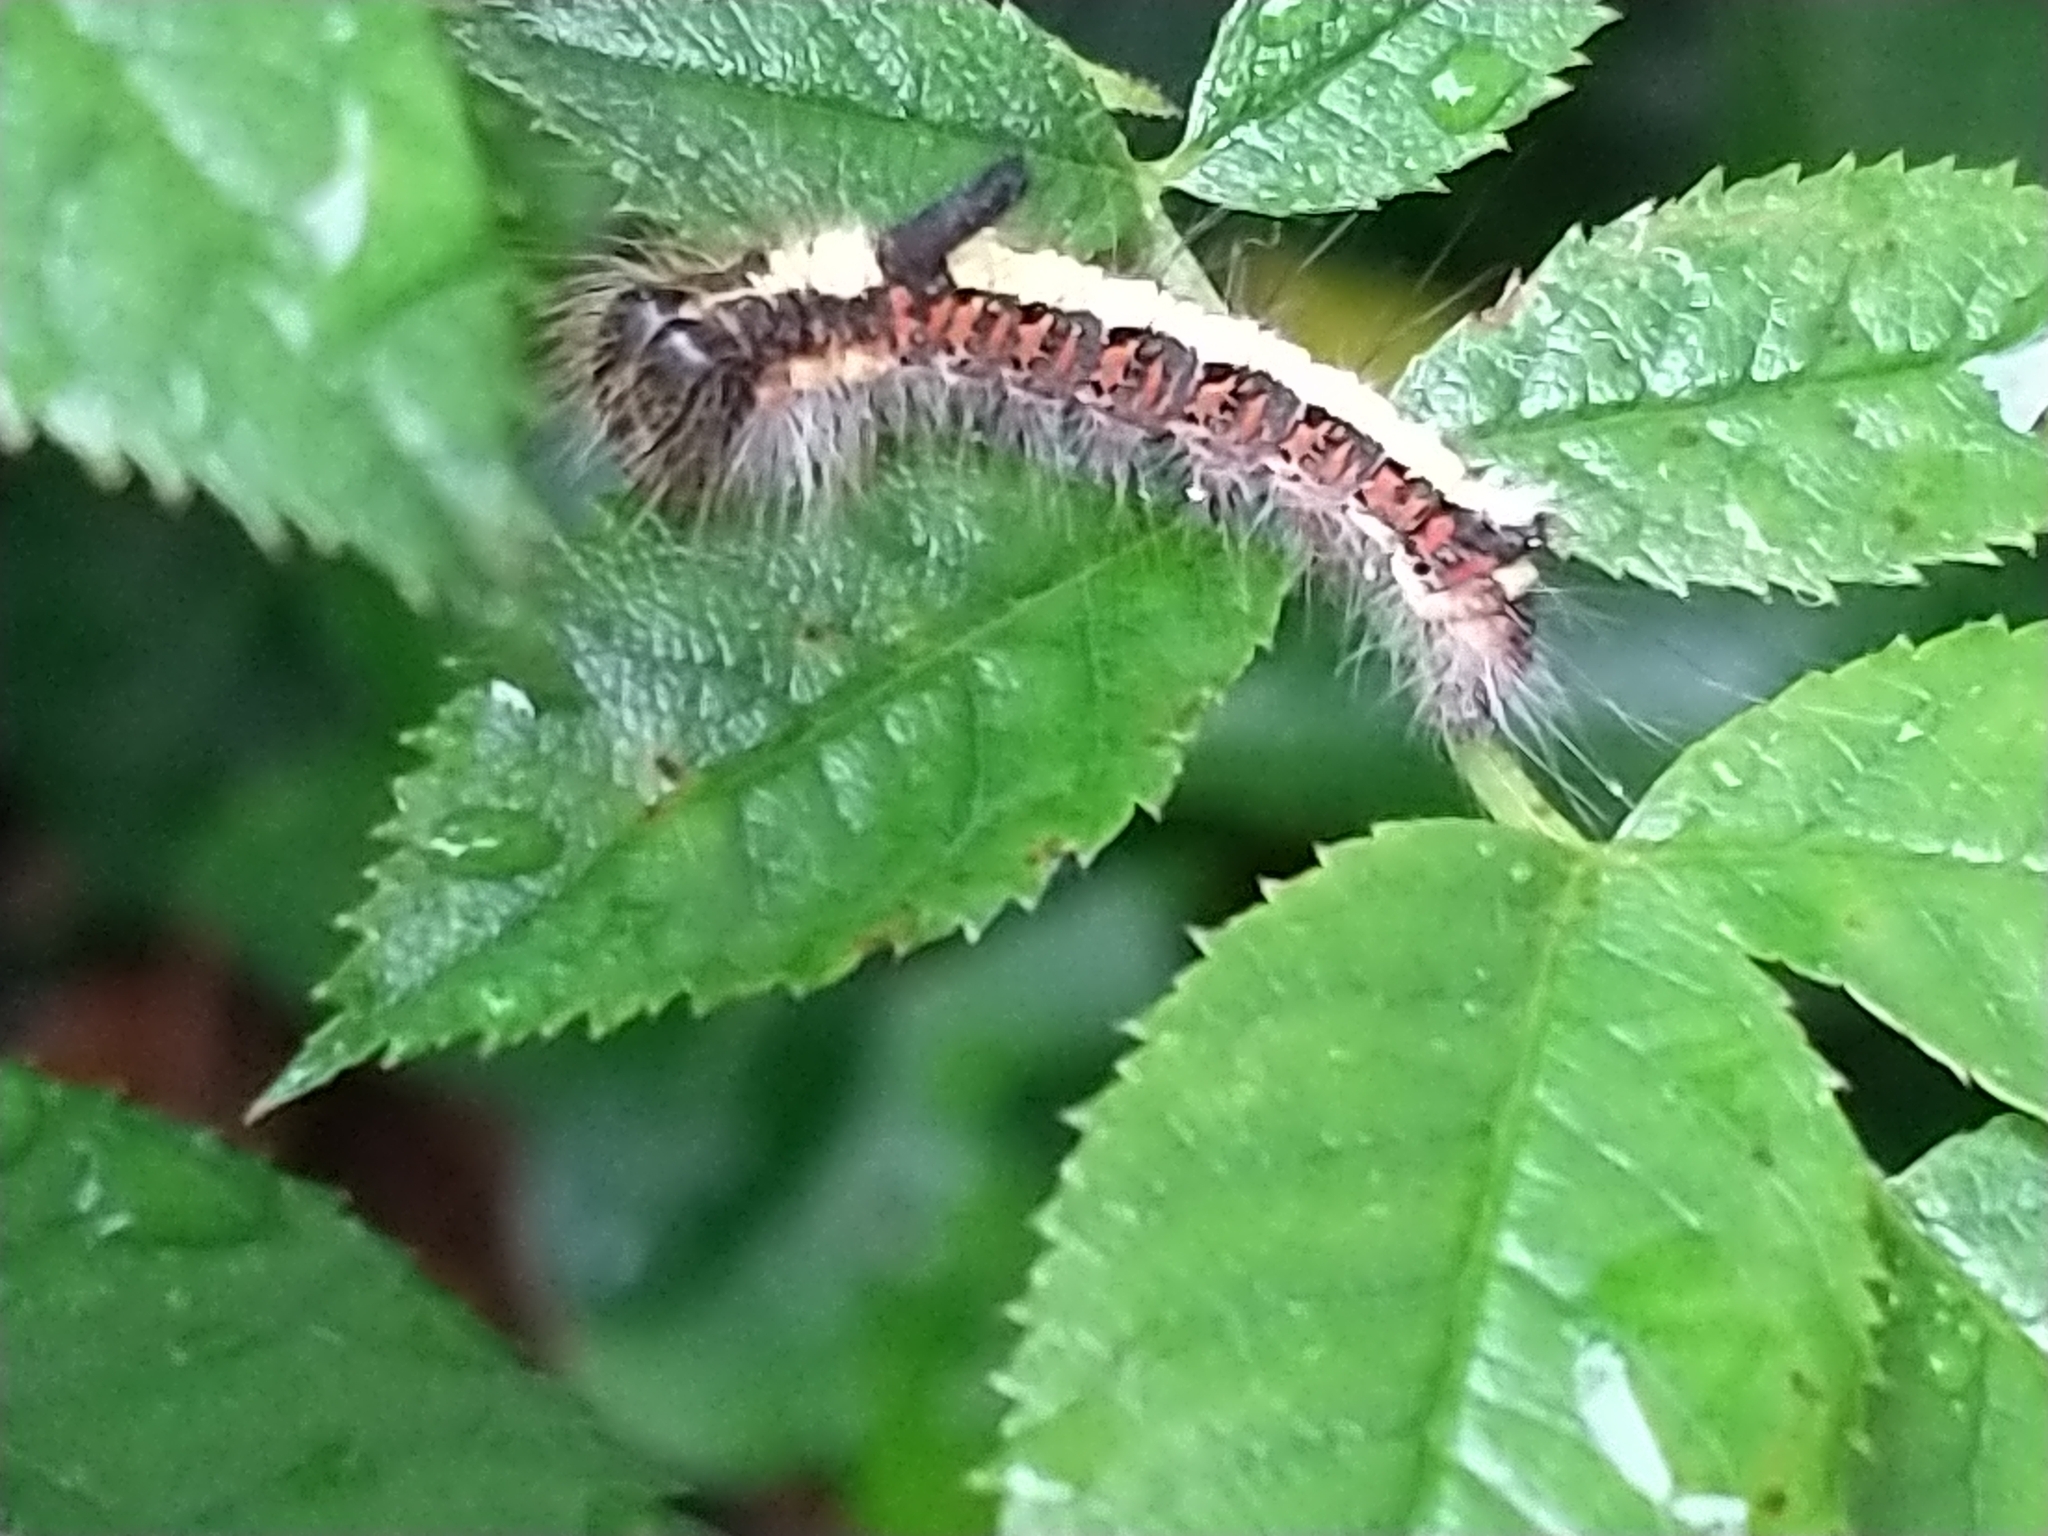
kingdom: Animalia
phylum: Arthropoda
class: Insecta
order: Lepidoptera
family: Noctuidae
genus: Acronicta
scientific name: Acronicta psi
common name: Grey dagger
